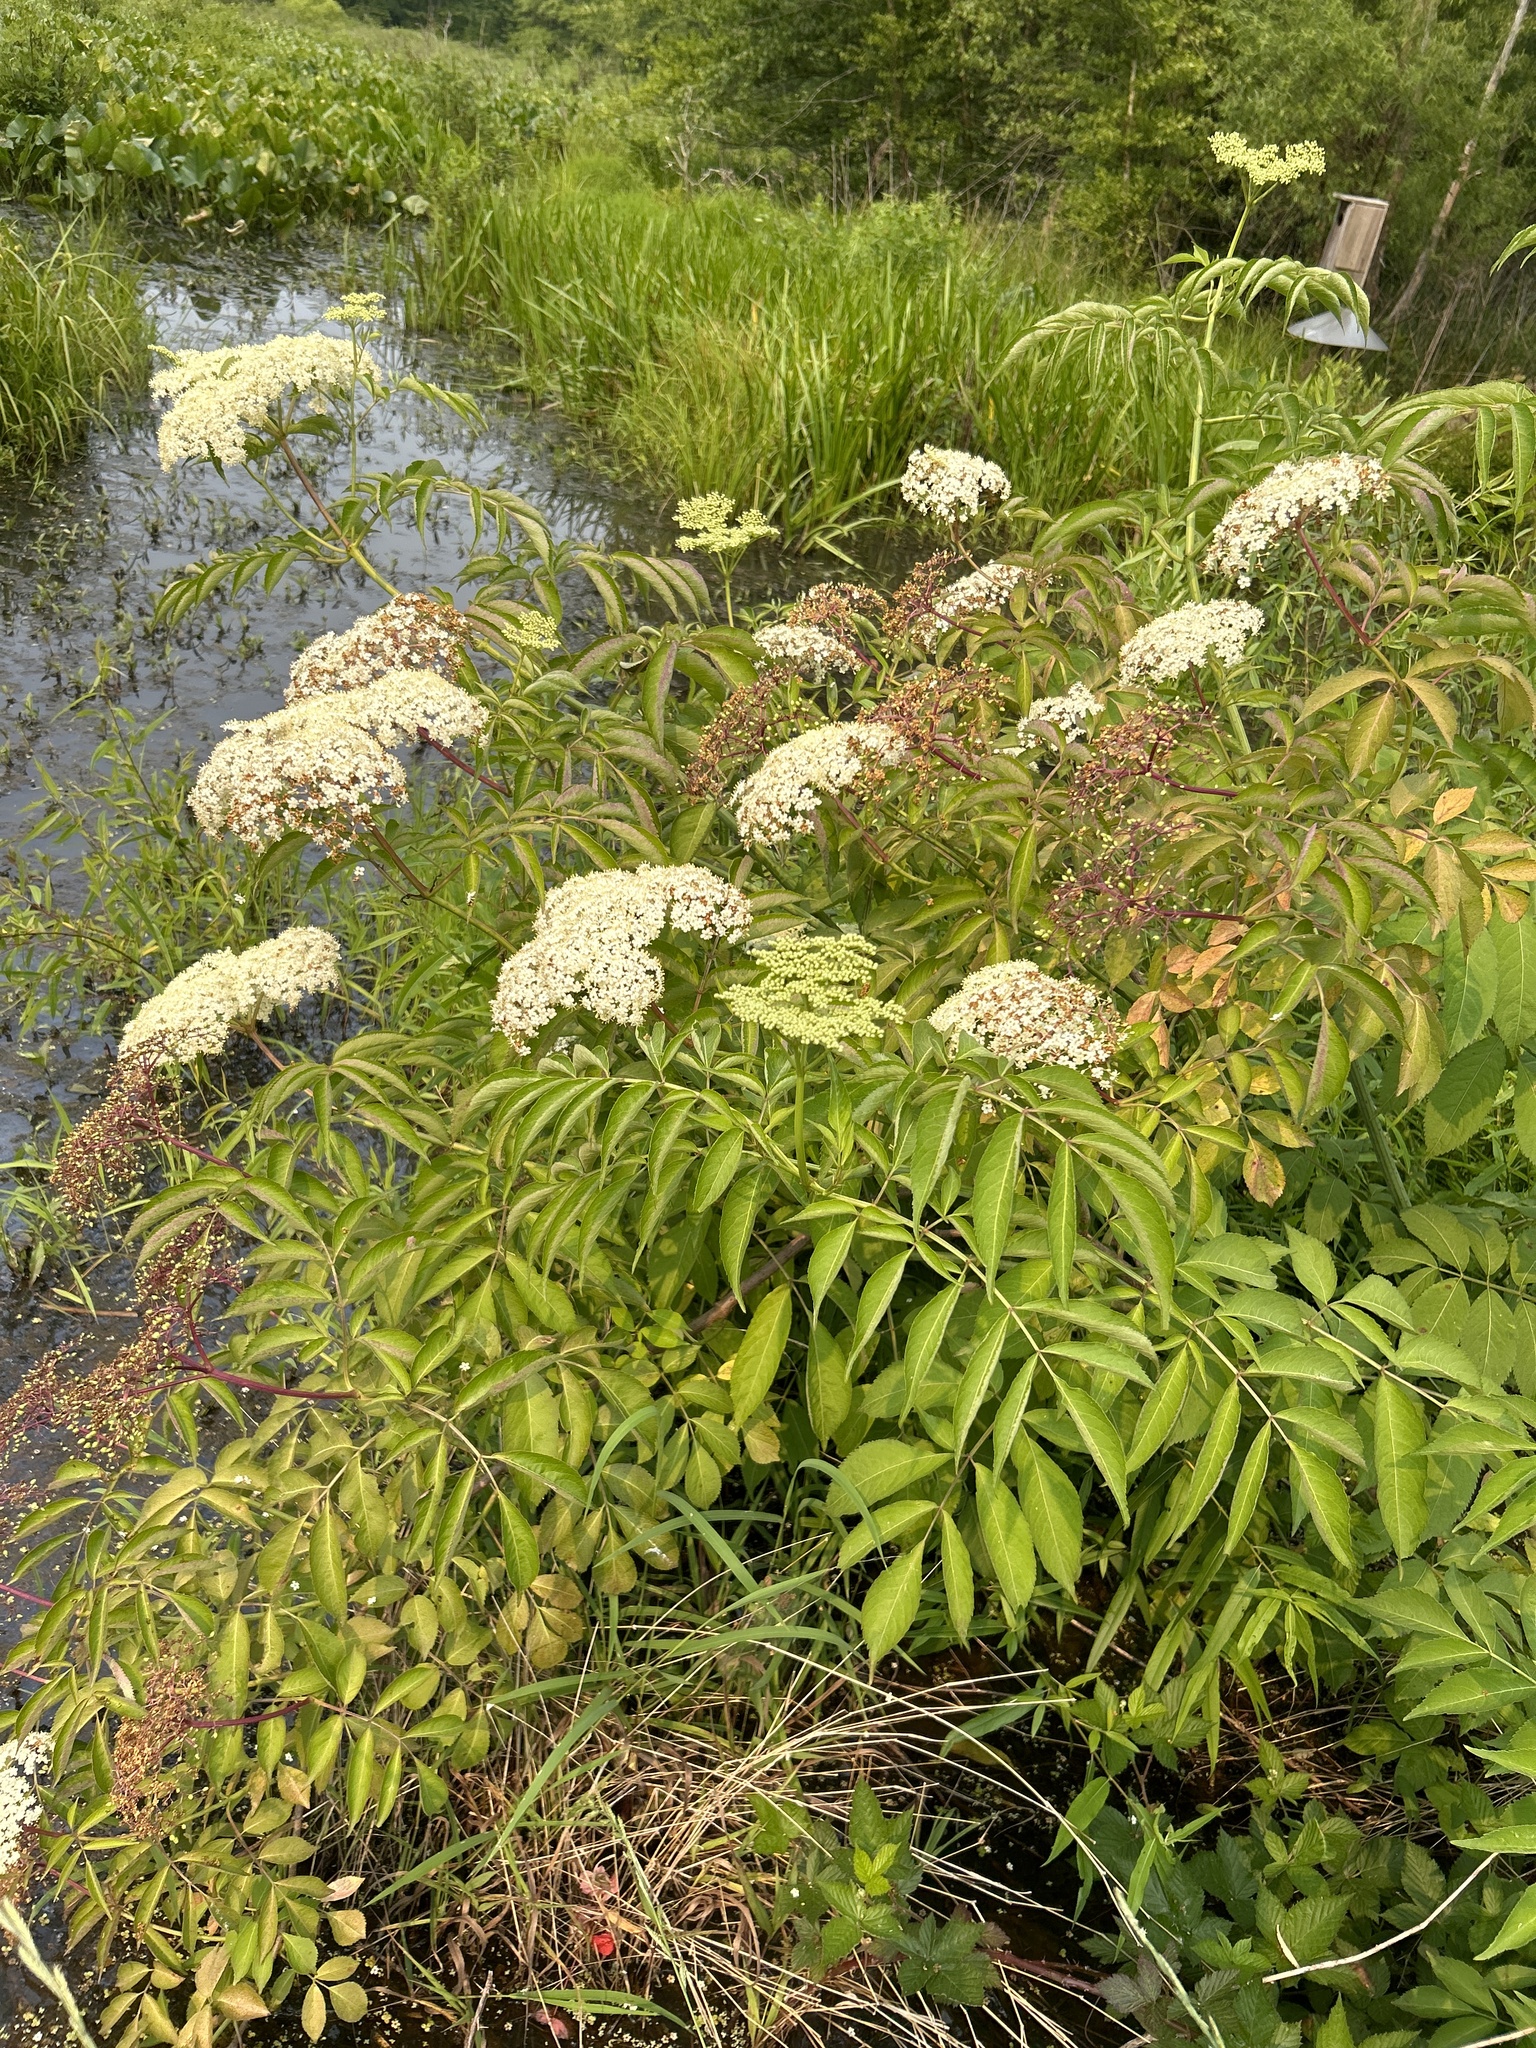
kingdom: Plantae
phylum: Tracheophyta
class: Magnoliopsida
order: Dipsacales
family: Viburnaceae
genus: Sambucus
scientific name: Sambucus canadensis
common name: American elder
